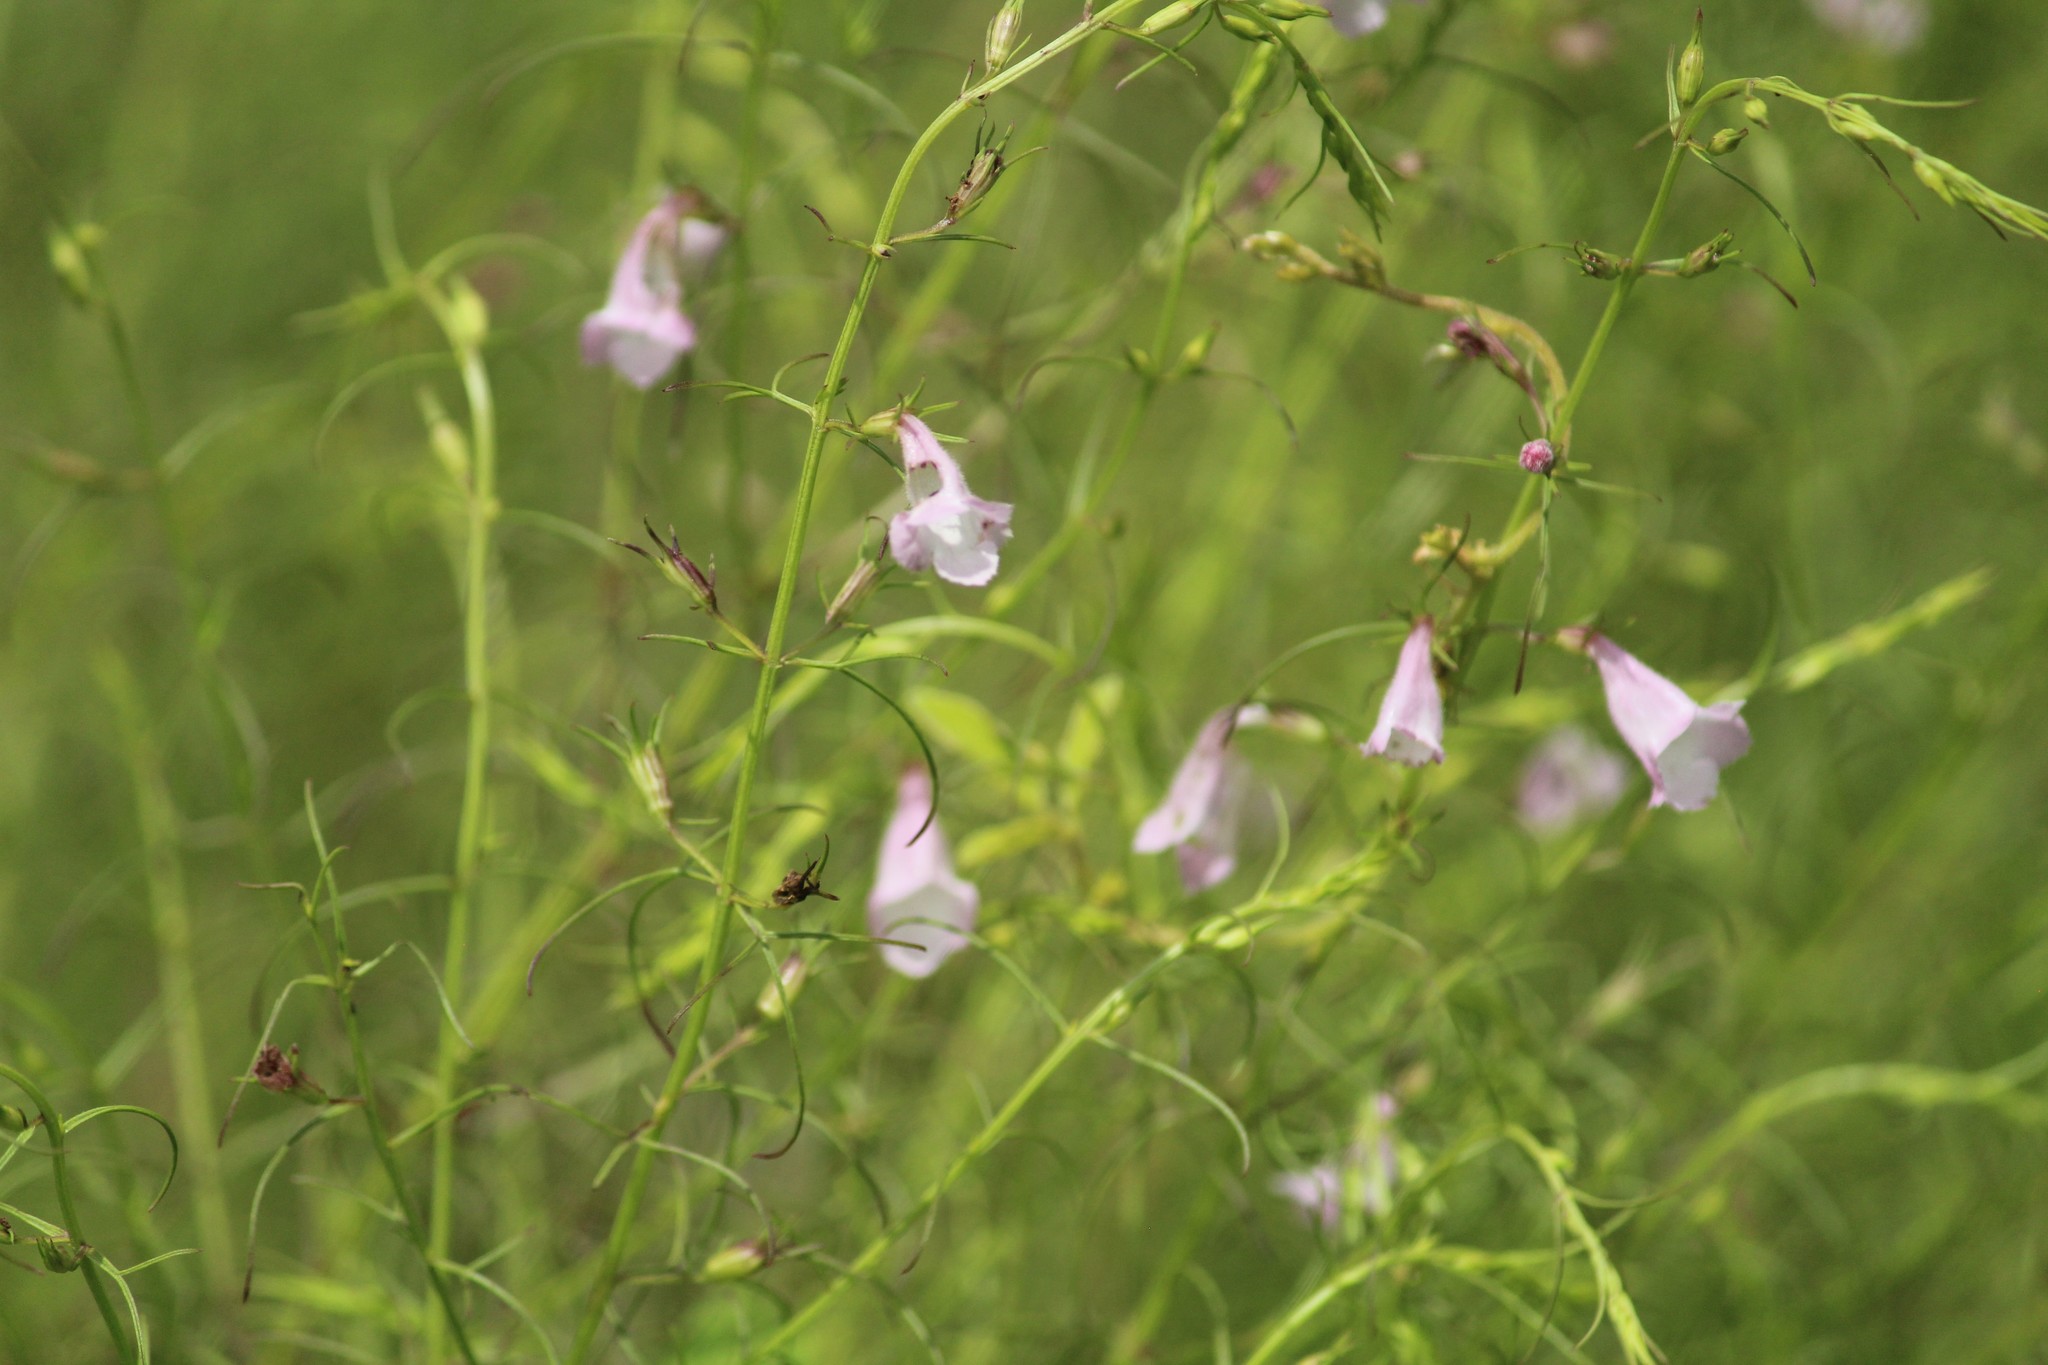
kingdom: Plantae
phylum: Tracheophyta
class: Magnoliopsida
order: Lamiales
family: Orobanchaceae
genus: Parasopubia
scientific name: Parasopubia delphiniifolia
